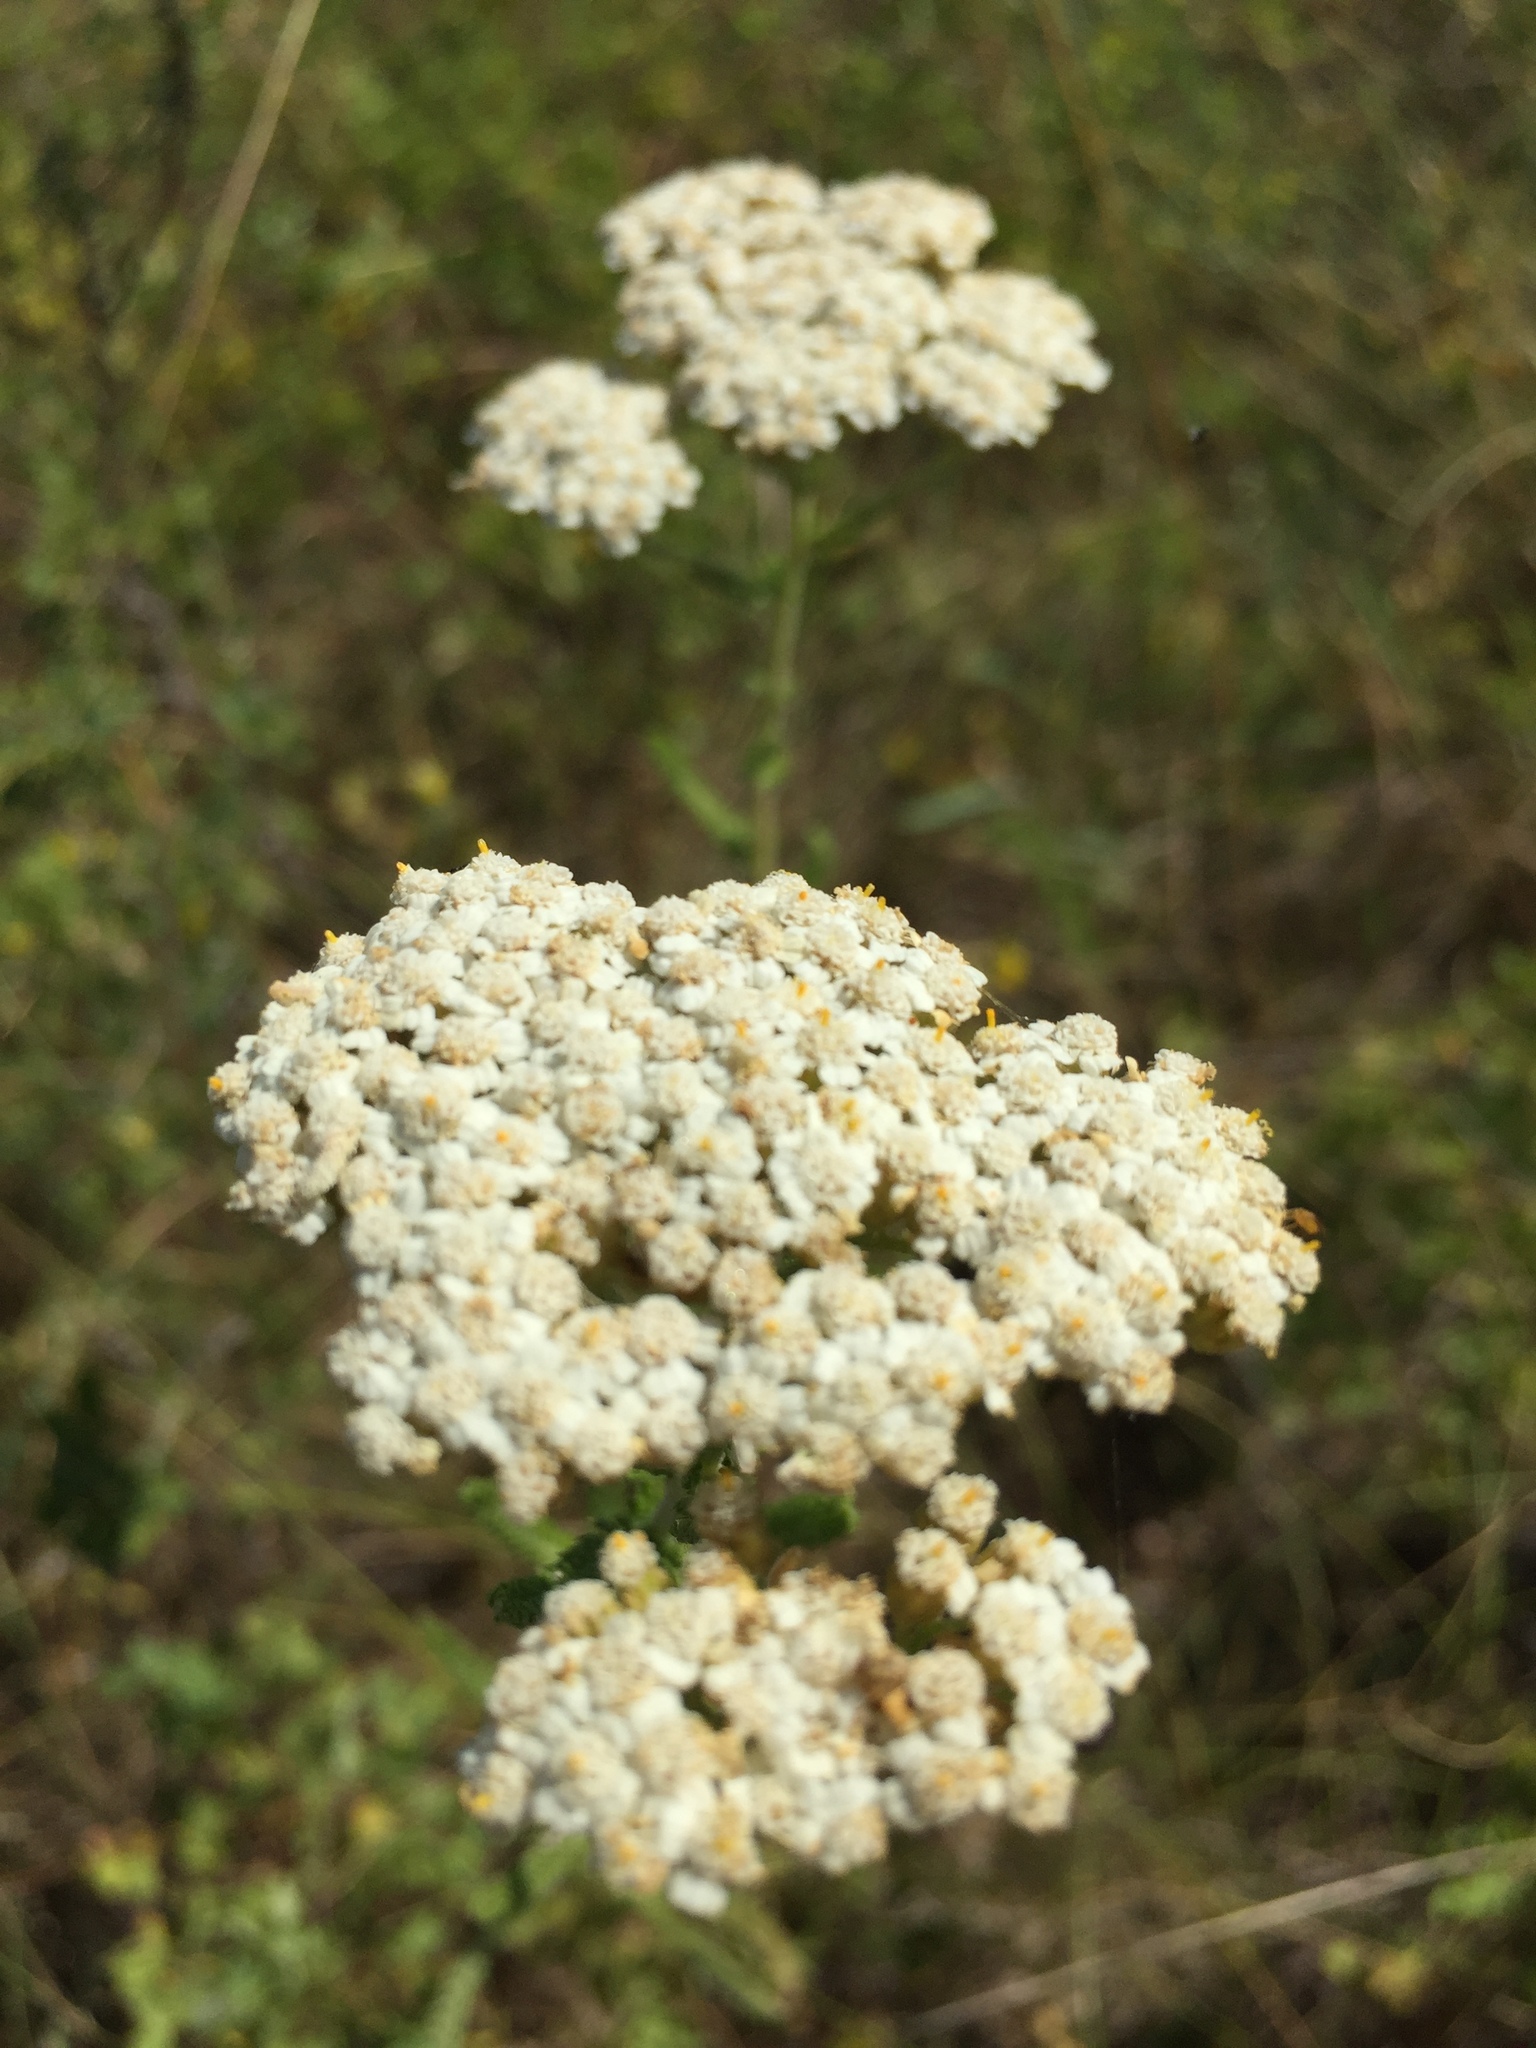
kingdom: Plantae
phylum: Tracheophyta
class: Magnoliopsida
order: Asterales
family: Asteraceae
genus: Achillea
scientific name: Achillea millefolium
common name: Yarrow
